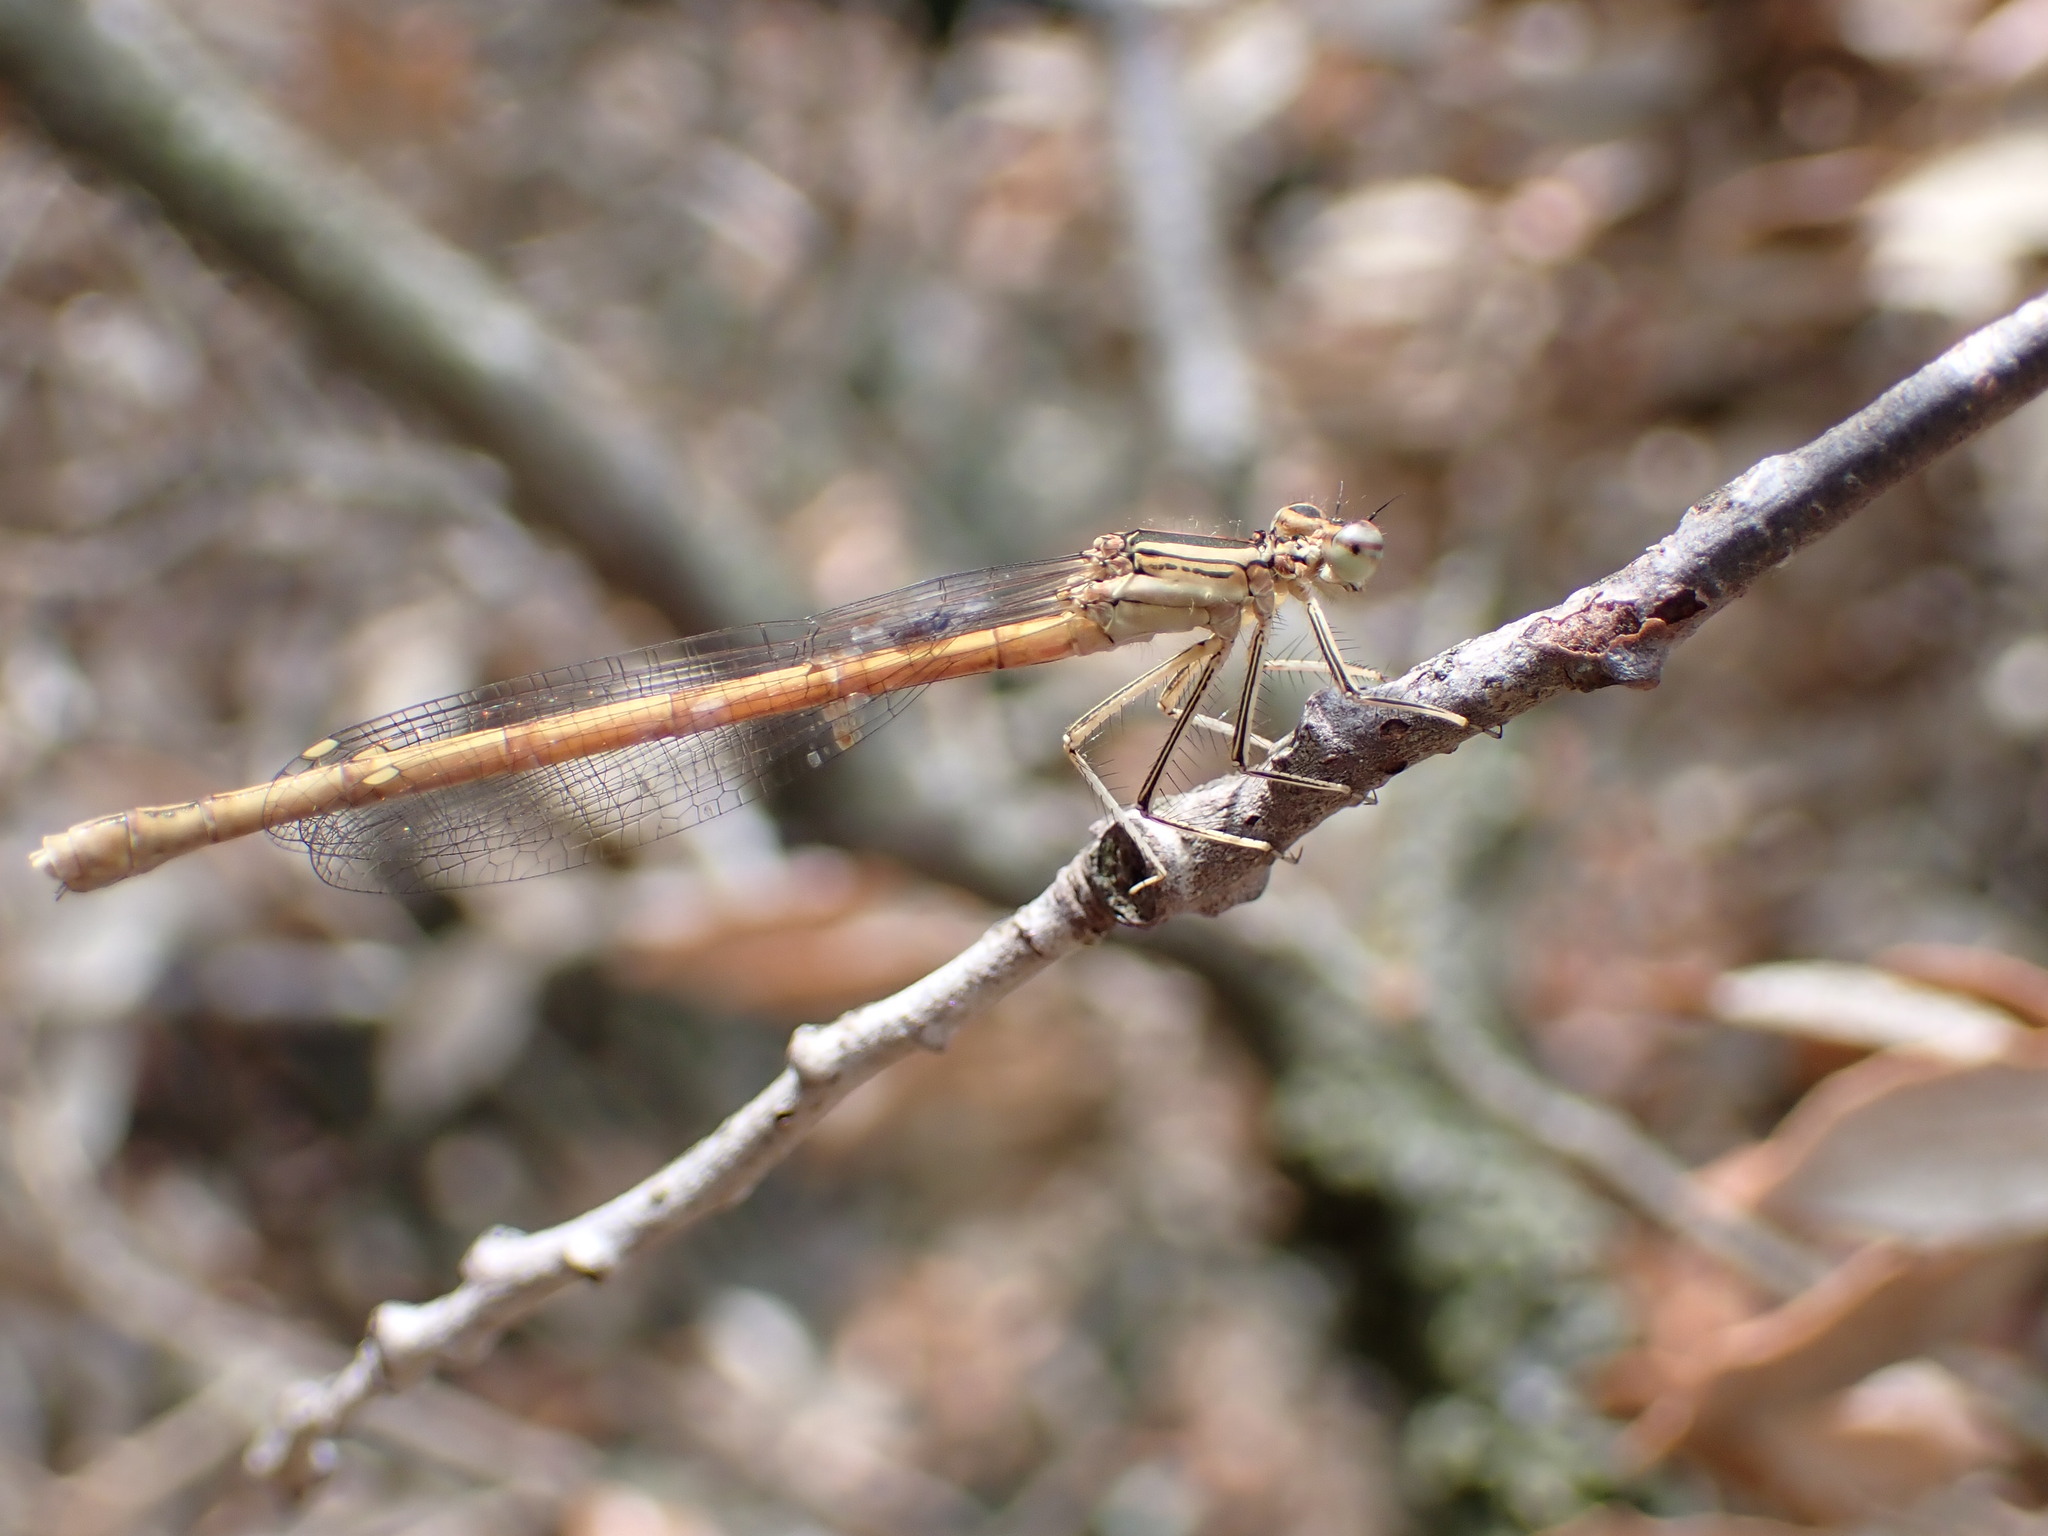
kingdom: Animalia
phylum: Arthropoda
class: Insecta
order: Odonata
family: Platycnemididae
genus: Platycnemis
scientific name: Platycnemis acutipennis
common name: Orange featherleg
